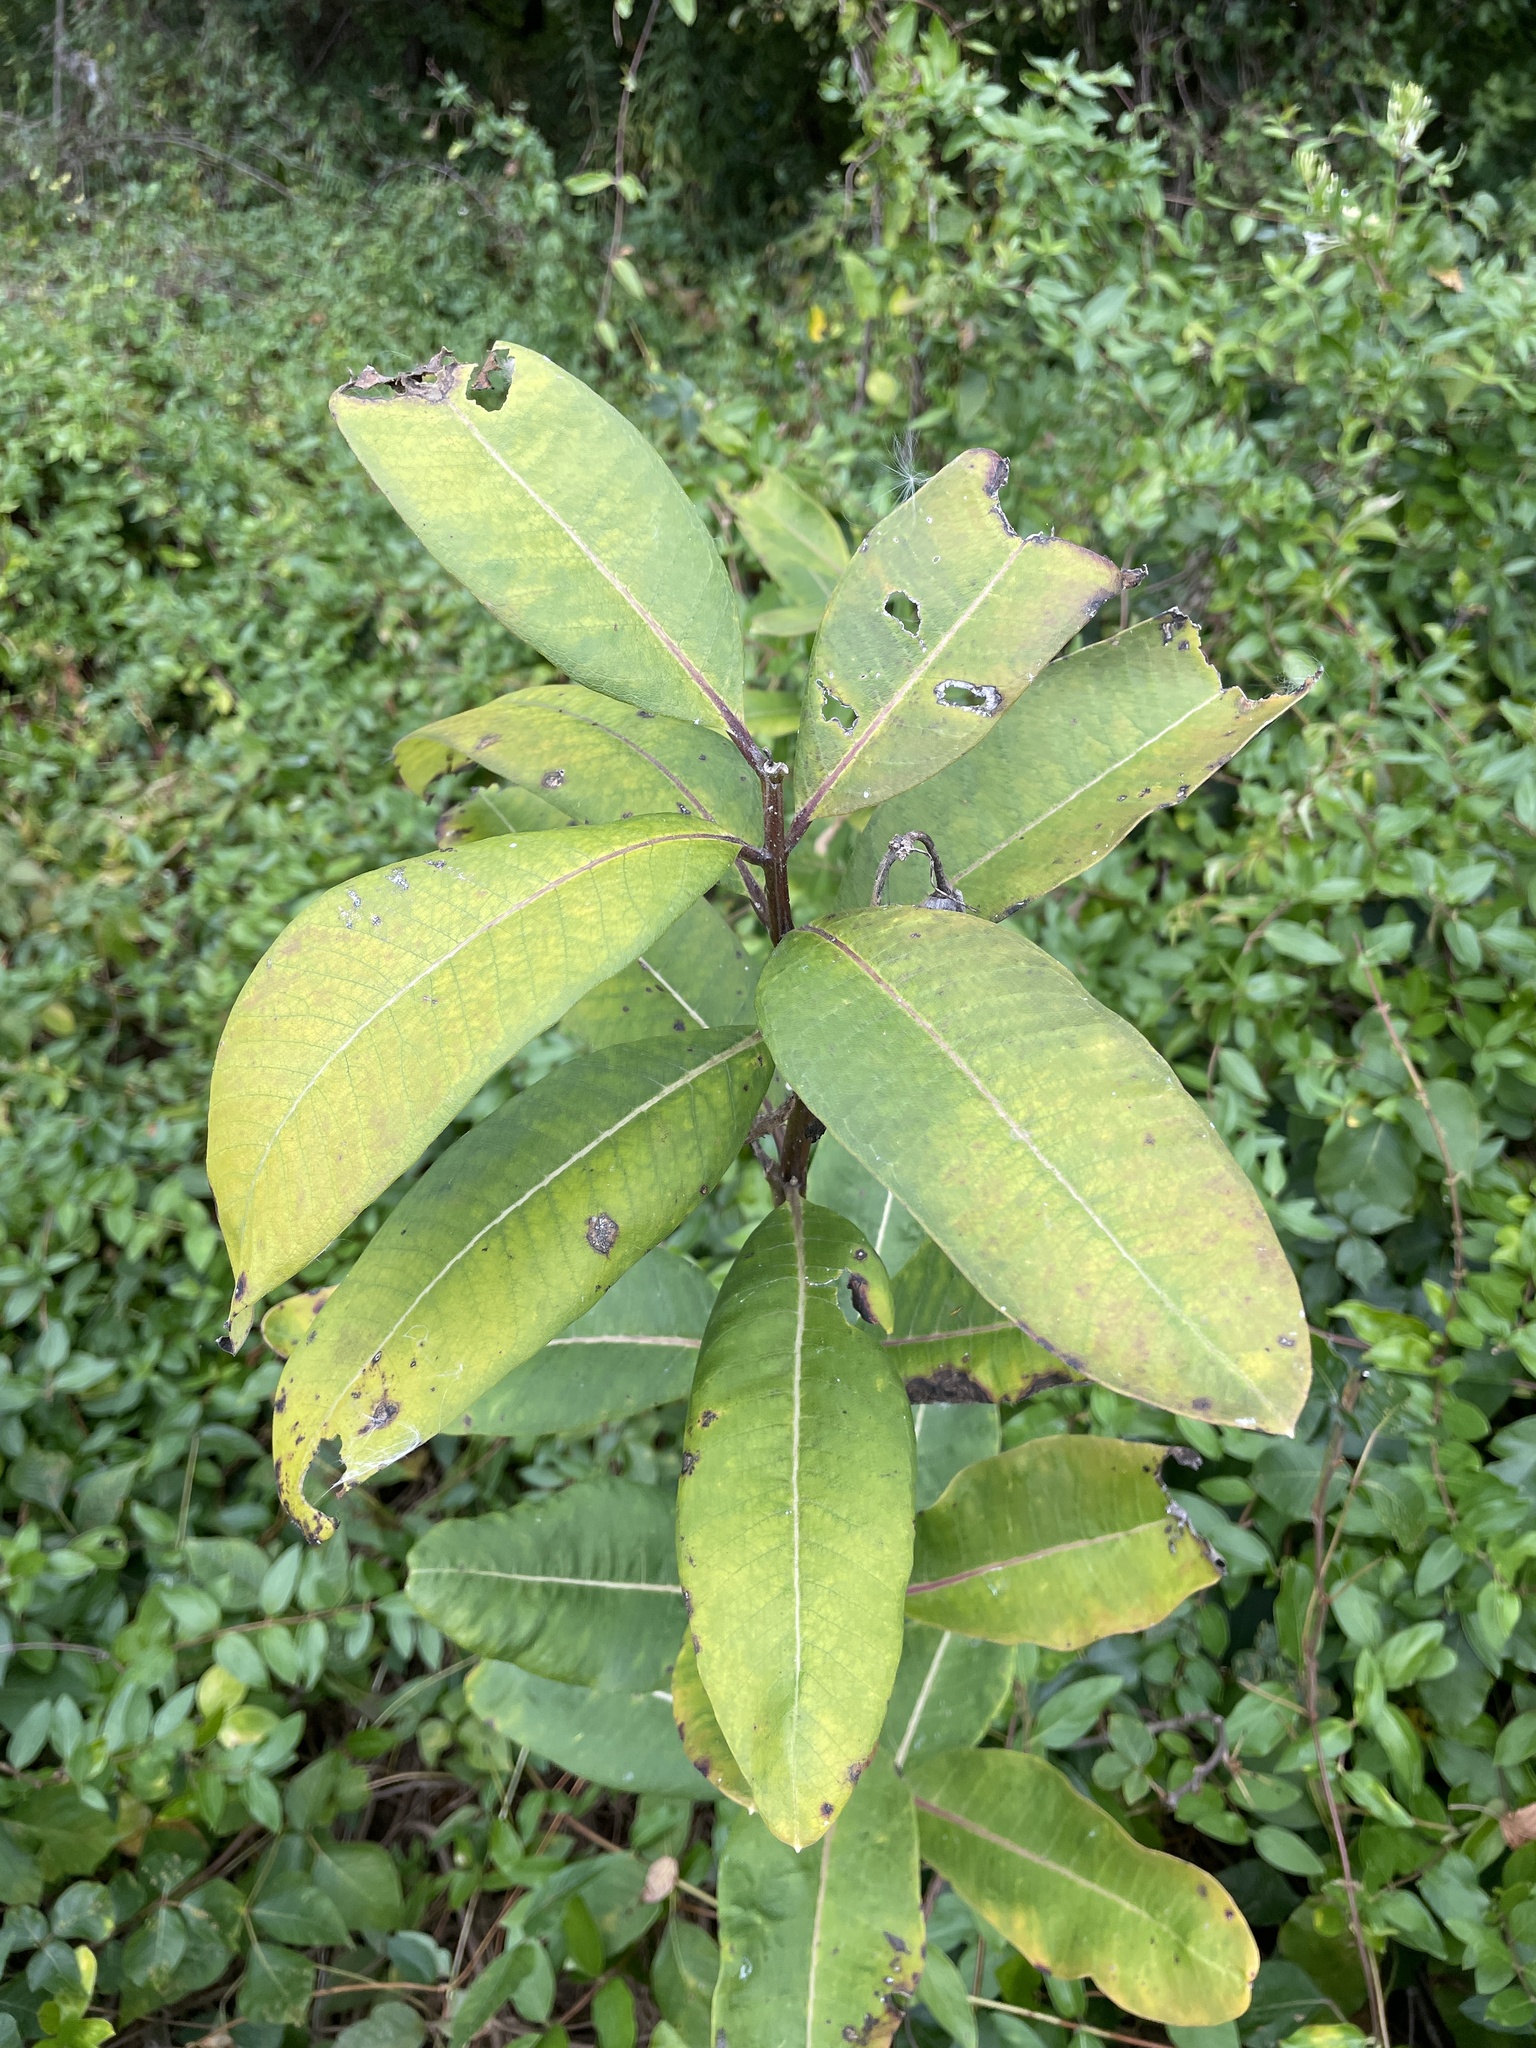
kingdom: Plantae
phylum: Tracheophyta
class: Magnoliopsida
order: Gentianales
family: Apocynaceae
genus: Asclepias
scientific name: Asclepias syriaca
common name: Common milkweed
